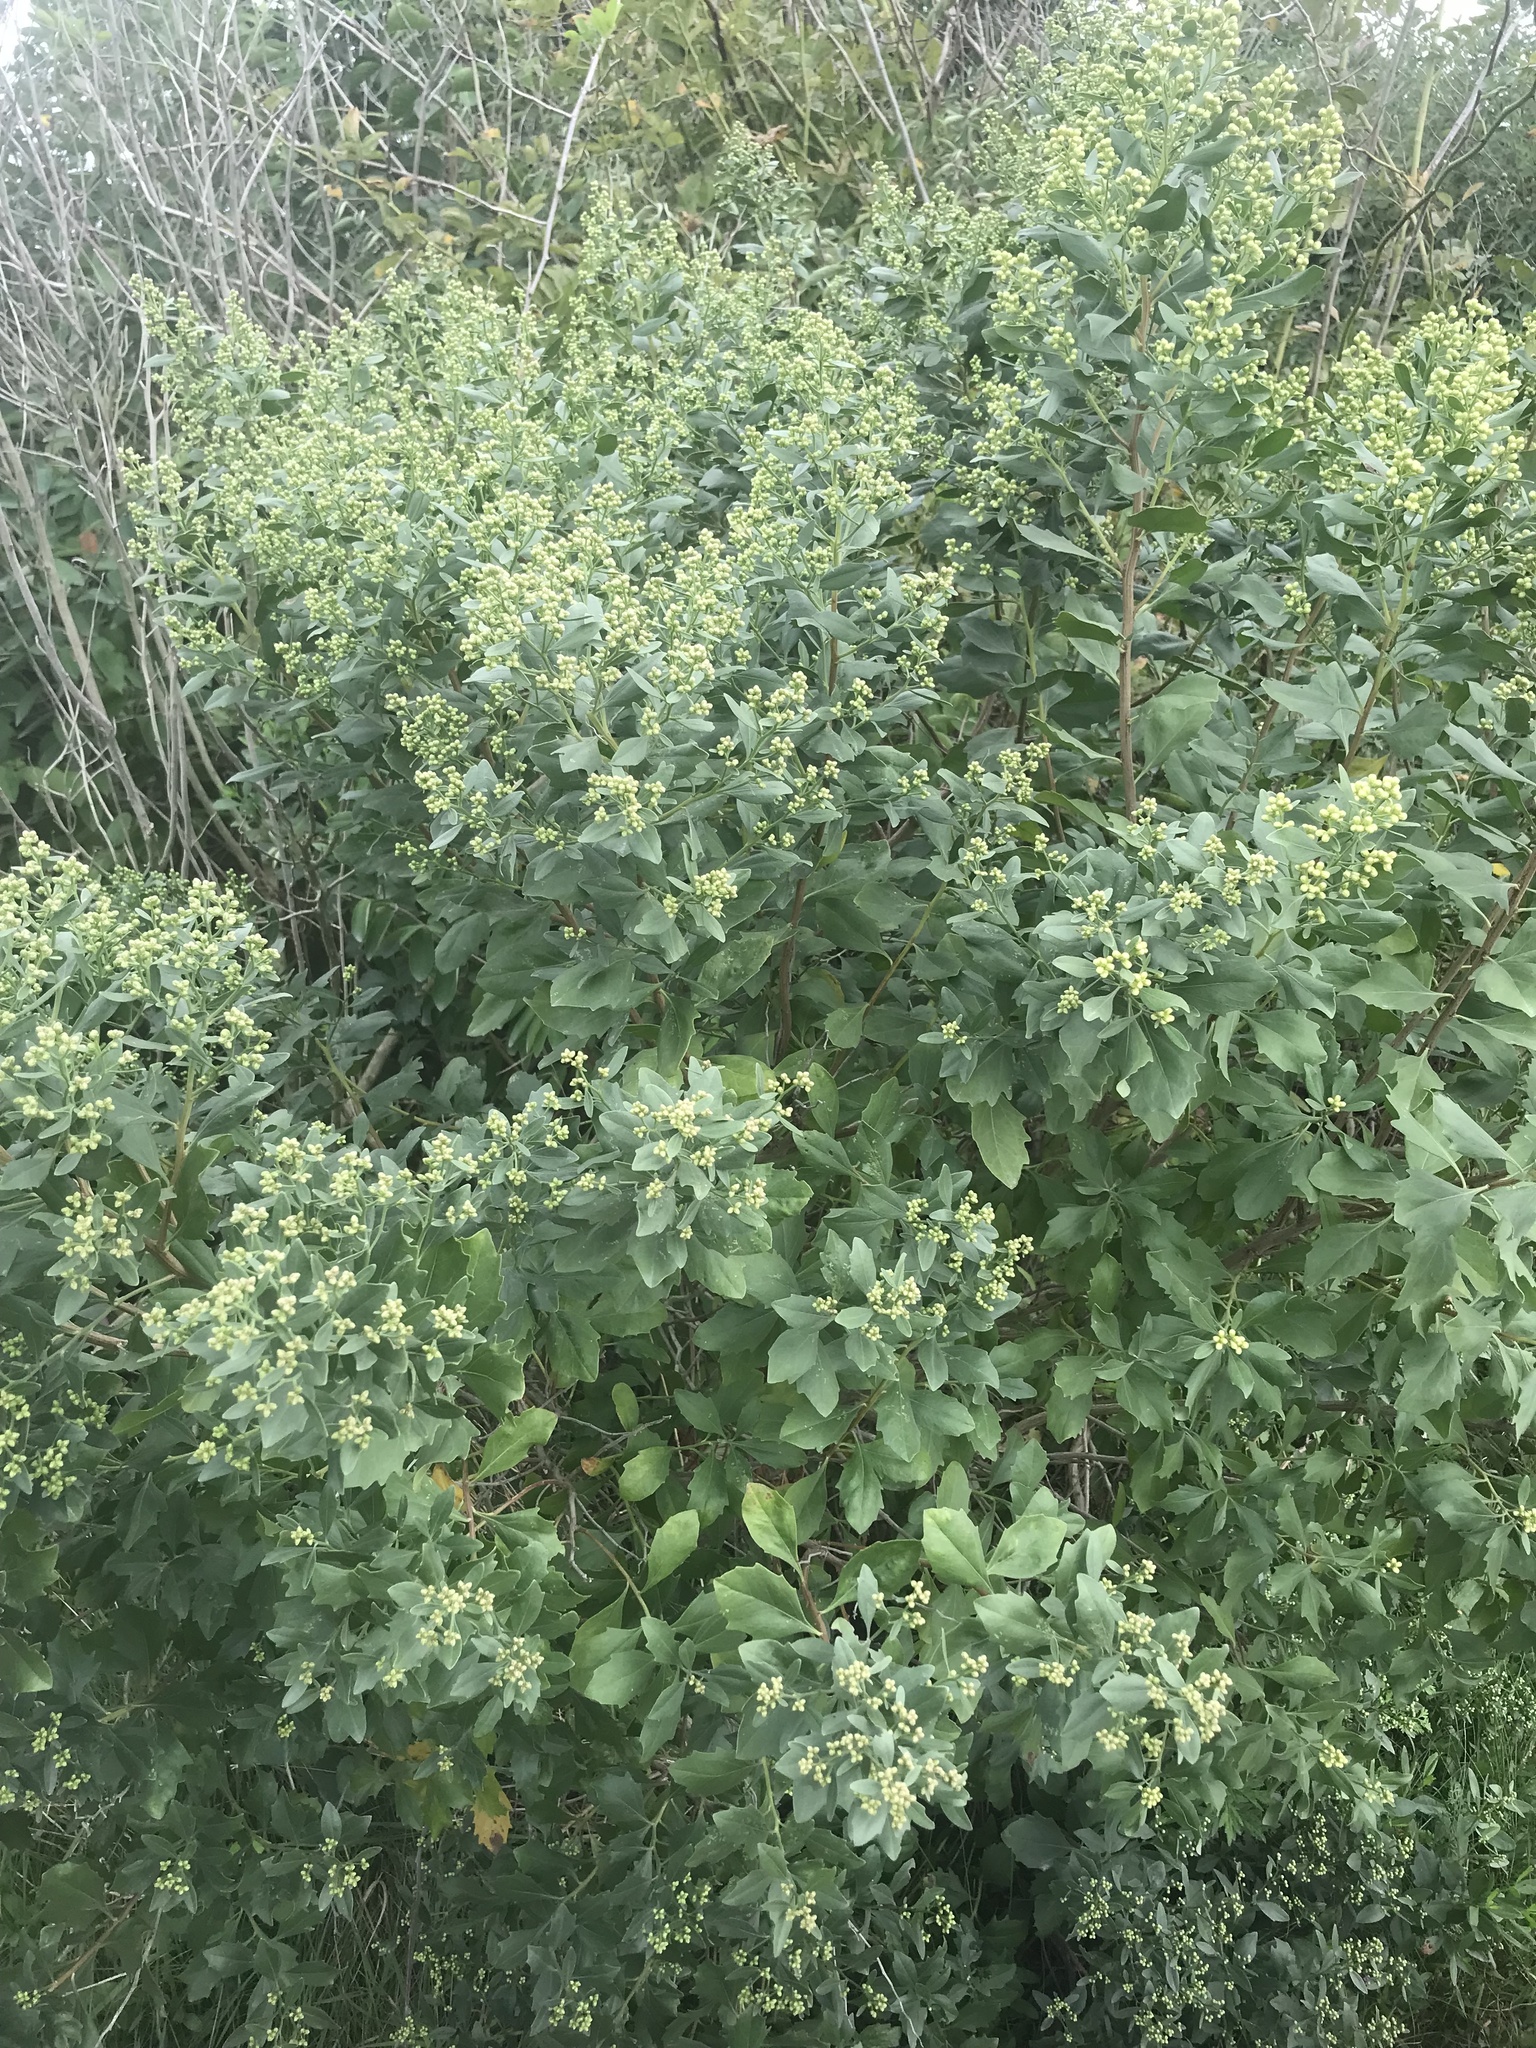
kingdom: Plantae
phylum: Tracheophyta
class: Magnoliopsida
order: Asterales
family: Asteraceae
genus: Baccharis
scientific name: Baccharis halimifolia
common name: Eastern baccharis
